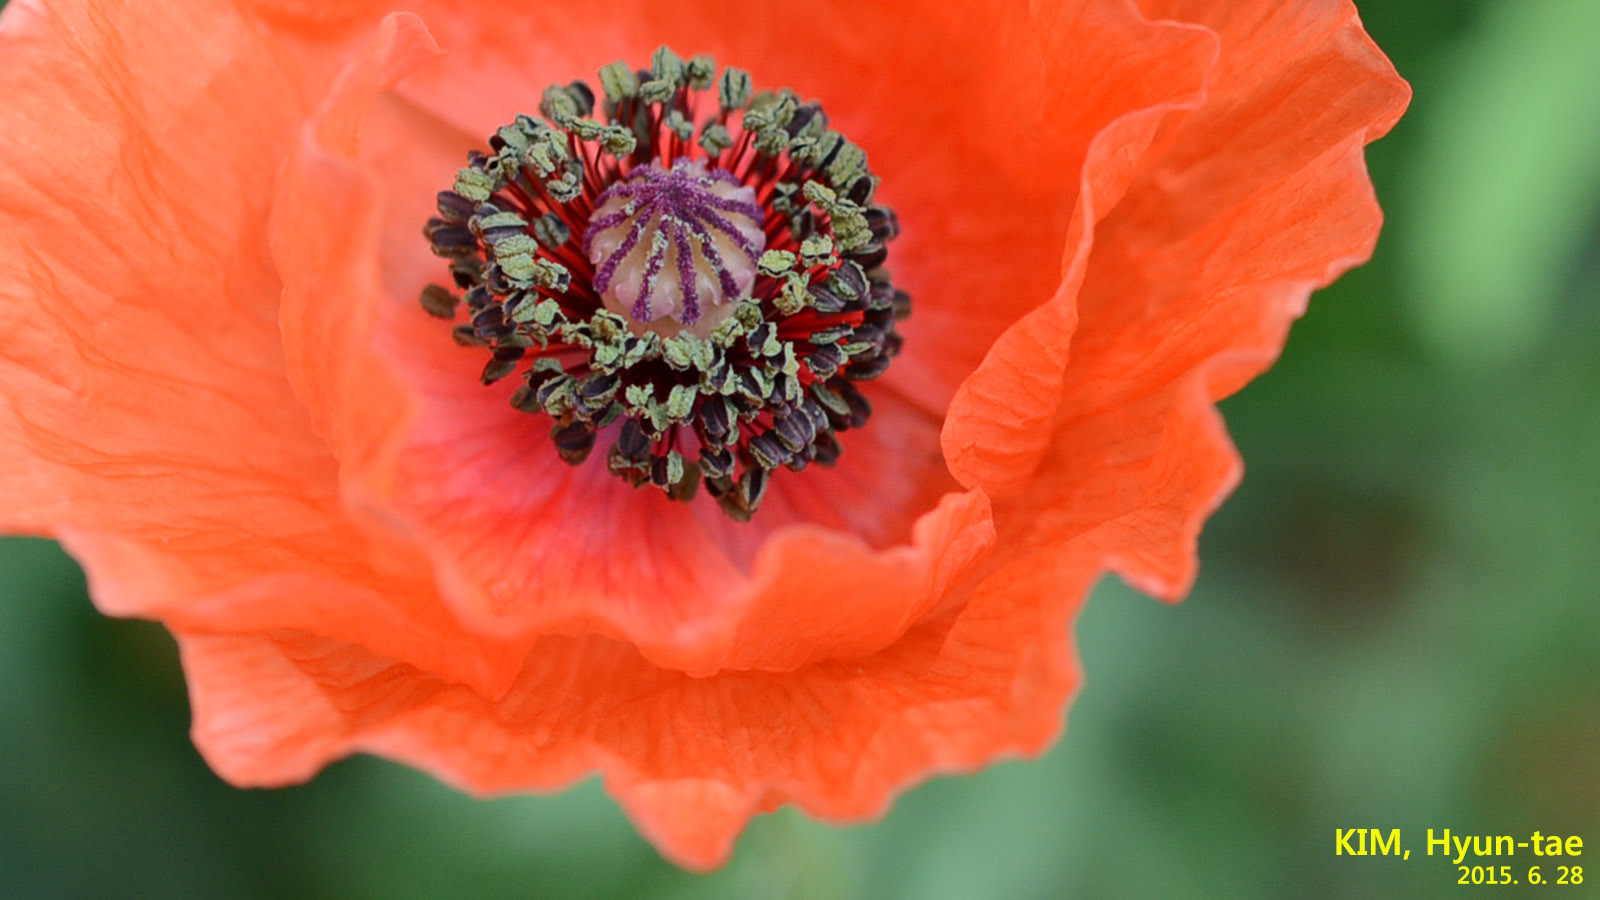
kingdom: Plantae
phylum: Tracheophyta
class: Magnoliopsida
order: Ranunculales
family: Papaveraceae
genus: Papaver
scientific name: Papaver rhoeas
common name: Corn poppy
